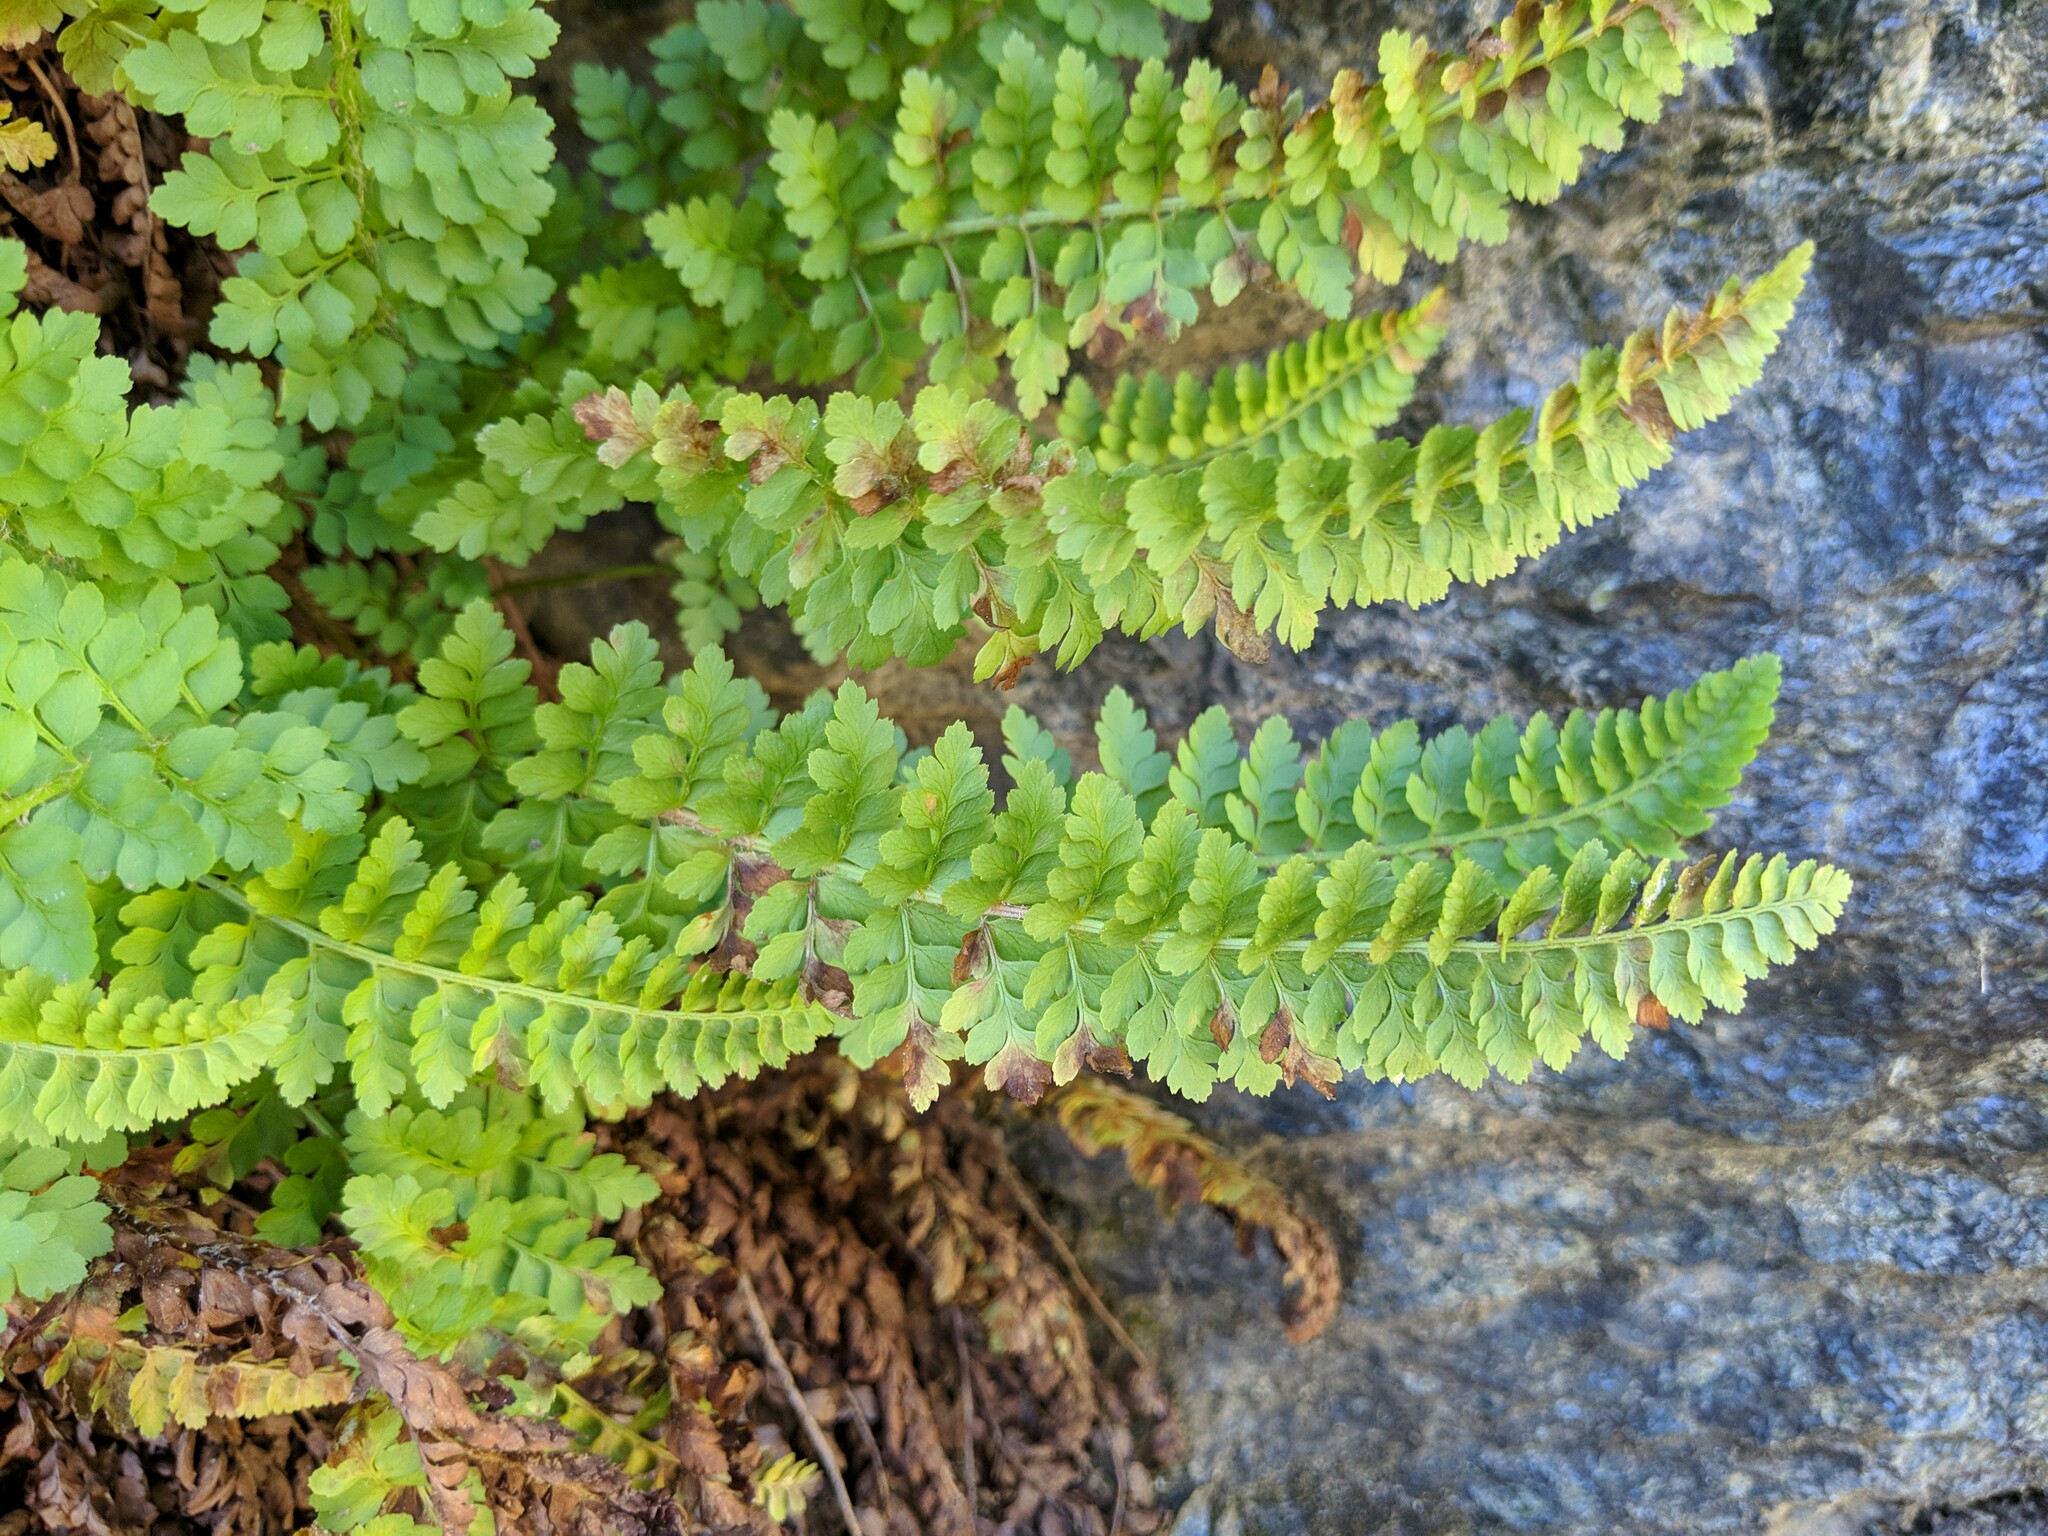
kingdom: Plantae
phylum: Tracheophyta
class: Polypodiopsida
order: Polypodiales
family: Dryopteridaceae
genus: Polystichum
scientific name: Polystichum lemmonii
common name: Lemmon's holly fern
